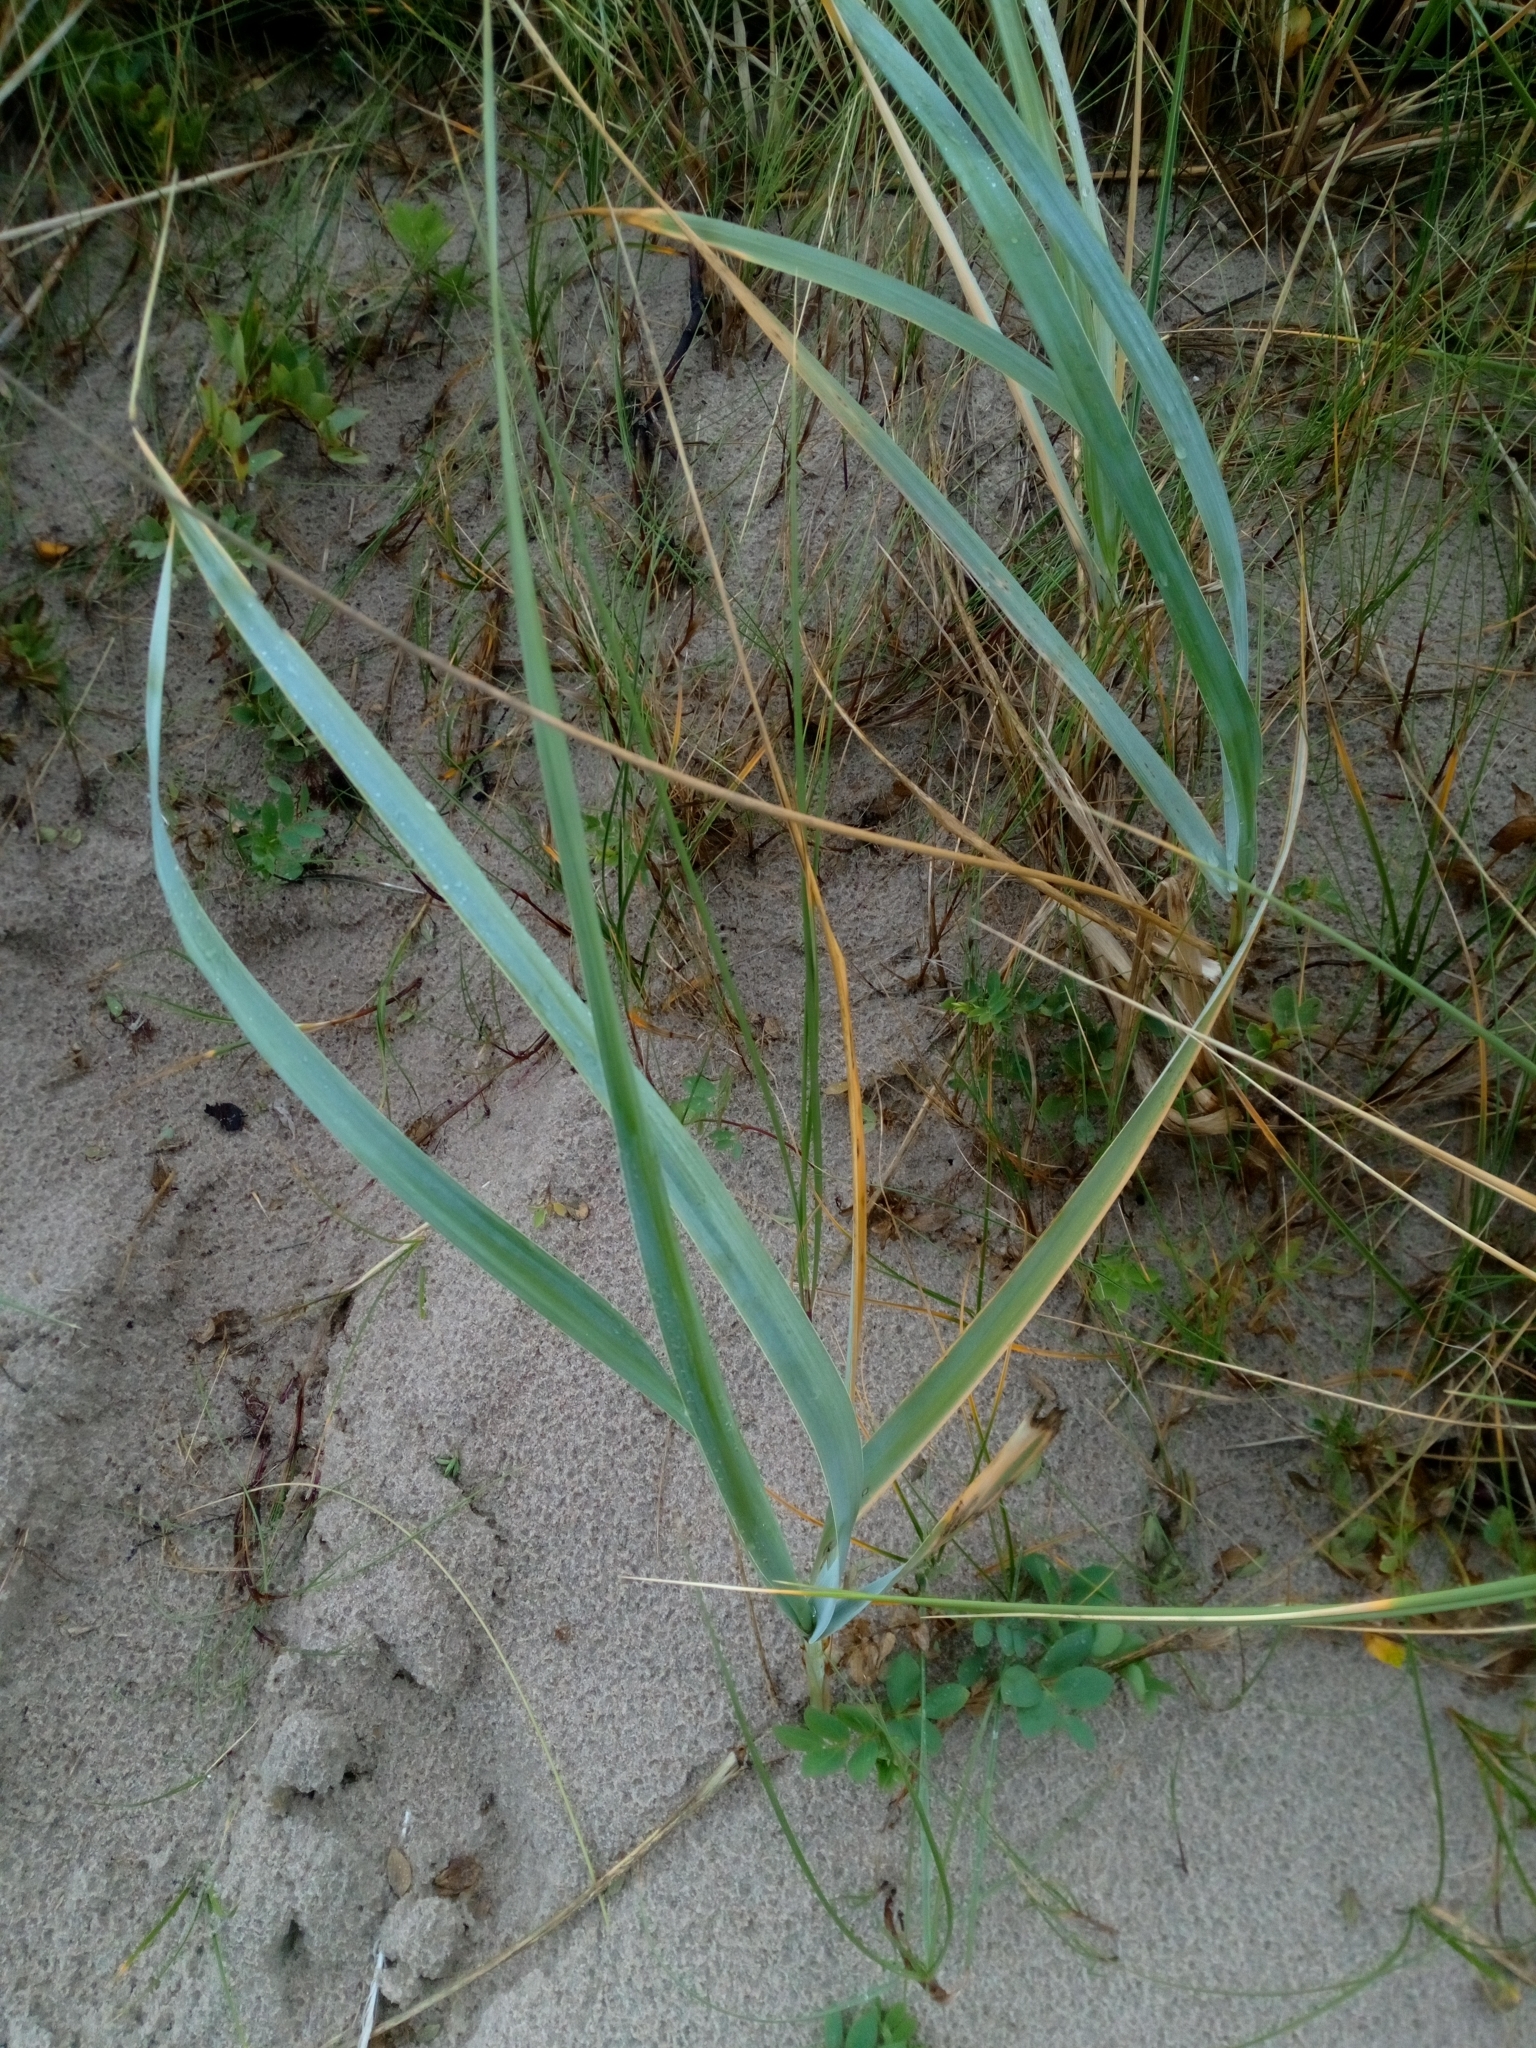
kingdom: Plantae
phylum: Tracheophyta
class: Liliopsida
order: Poales
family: Poaceae
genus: Leymus
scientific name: Leymus arenarius
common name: Lyme-grass
